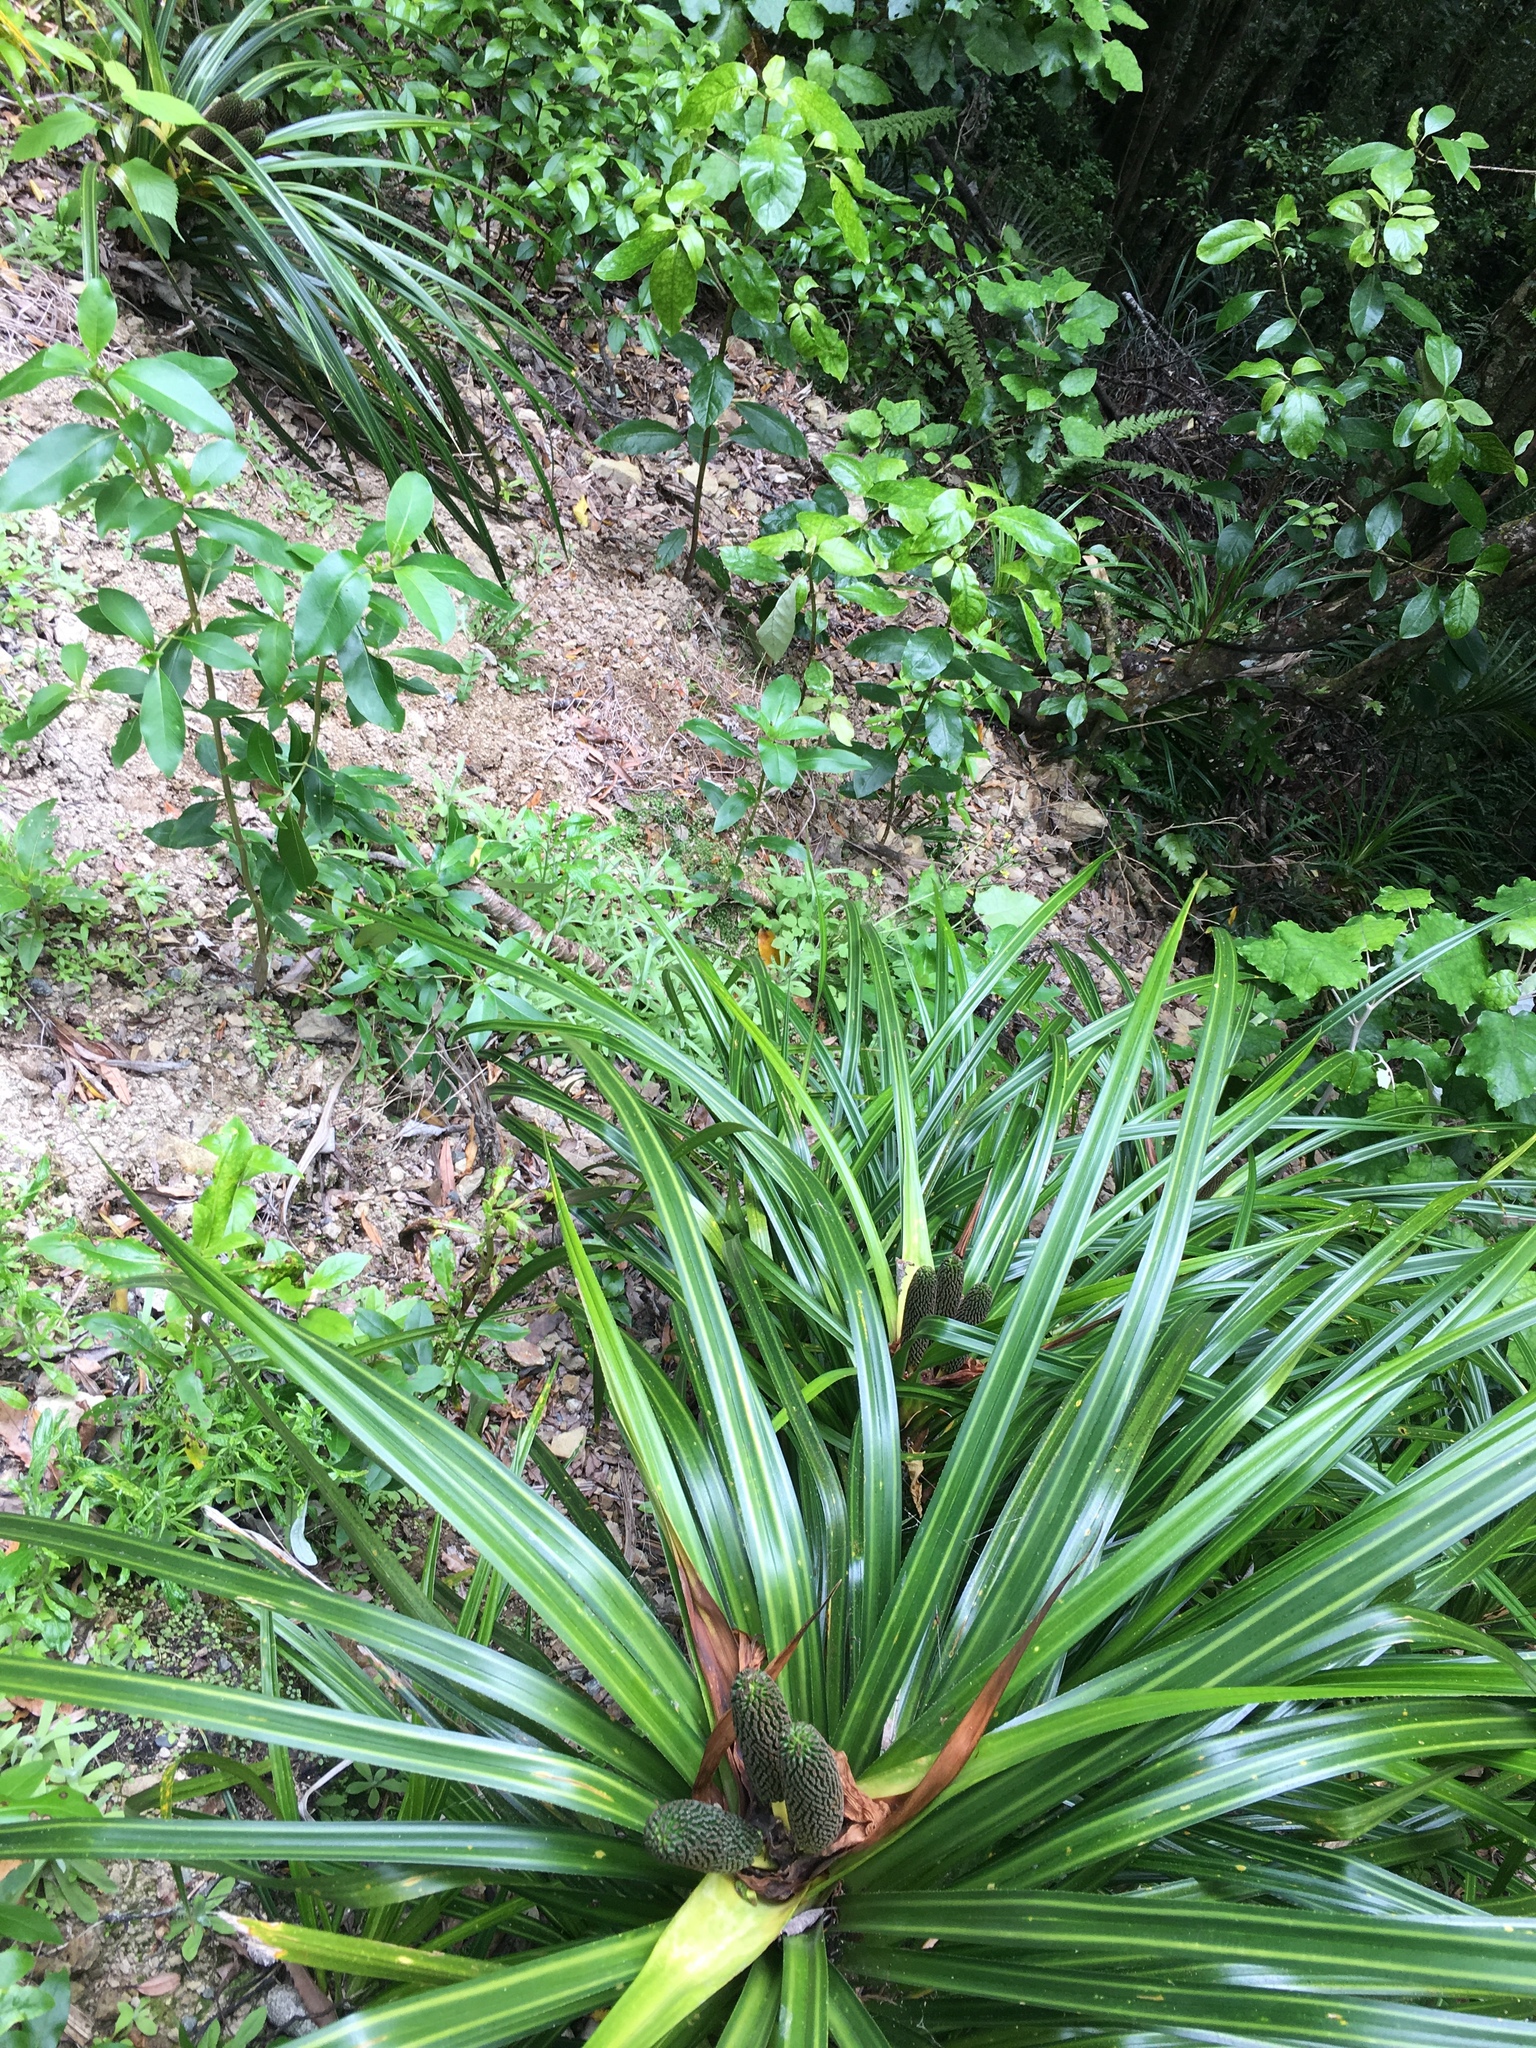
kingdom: Plantae
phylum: Tracheophyta
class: Liliopsida
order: Pandanales
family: Pandanaceae
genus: Freycinetia
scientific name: Freycinetia banksii
